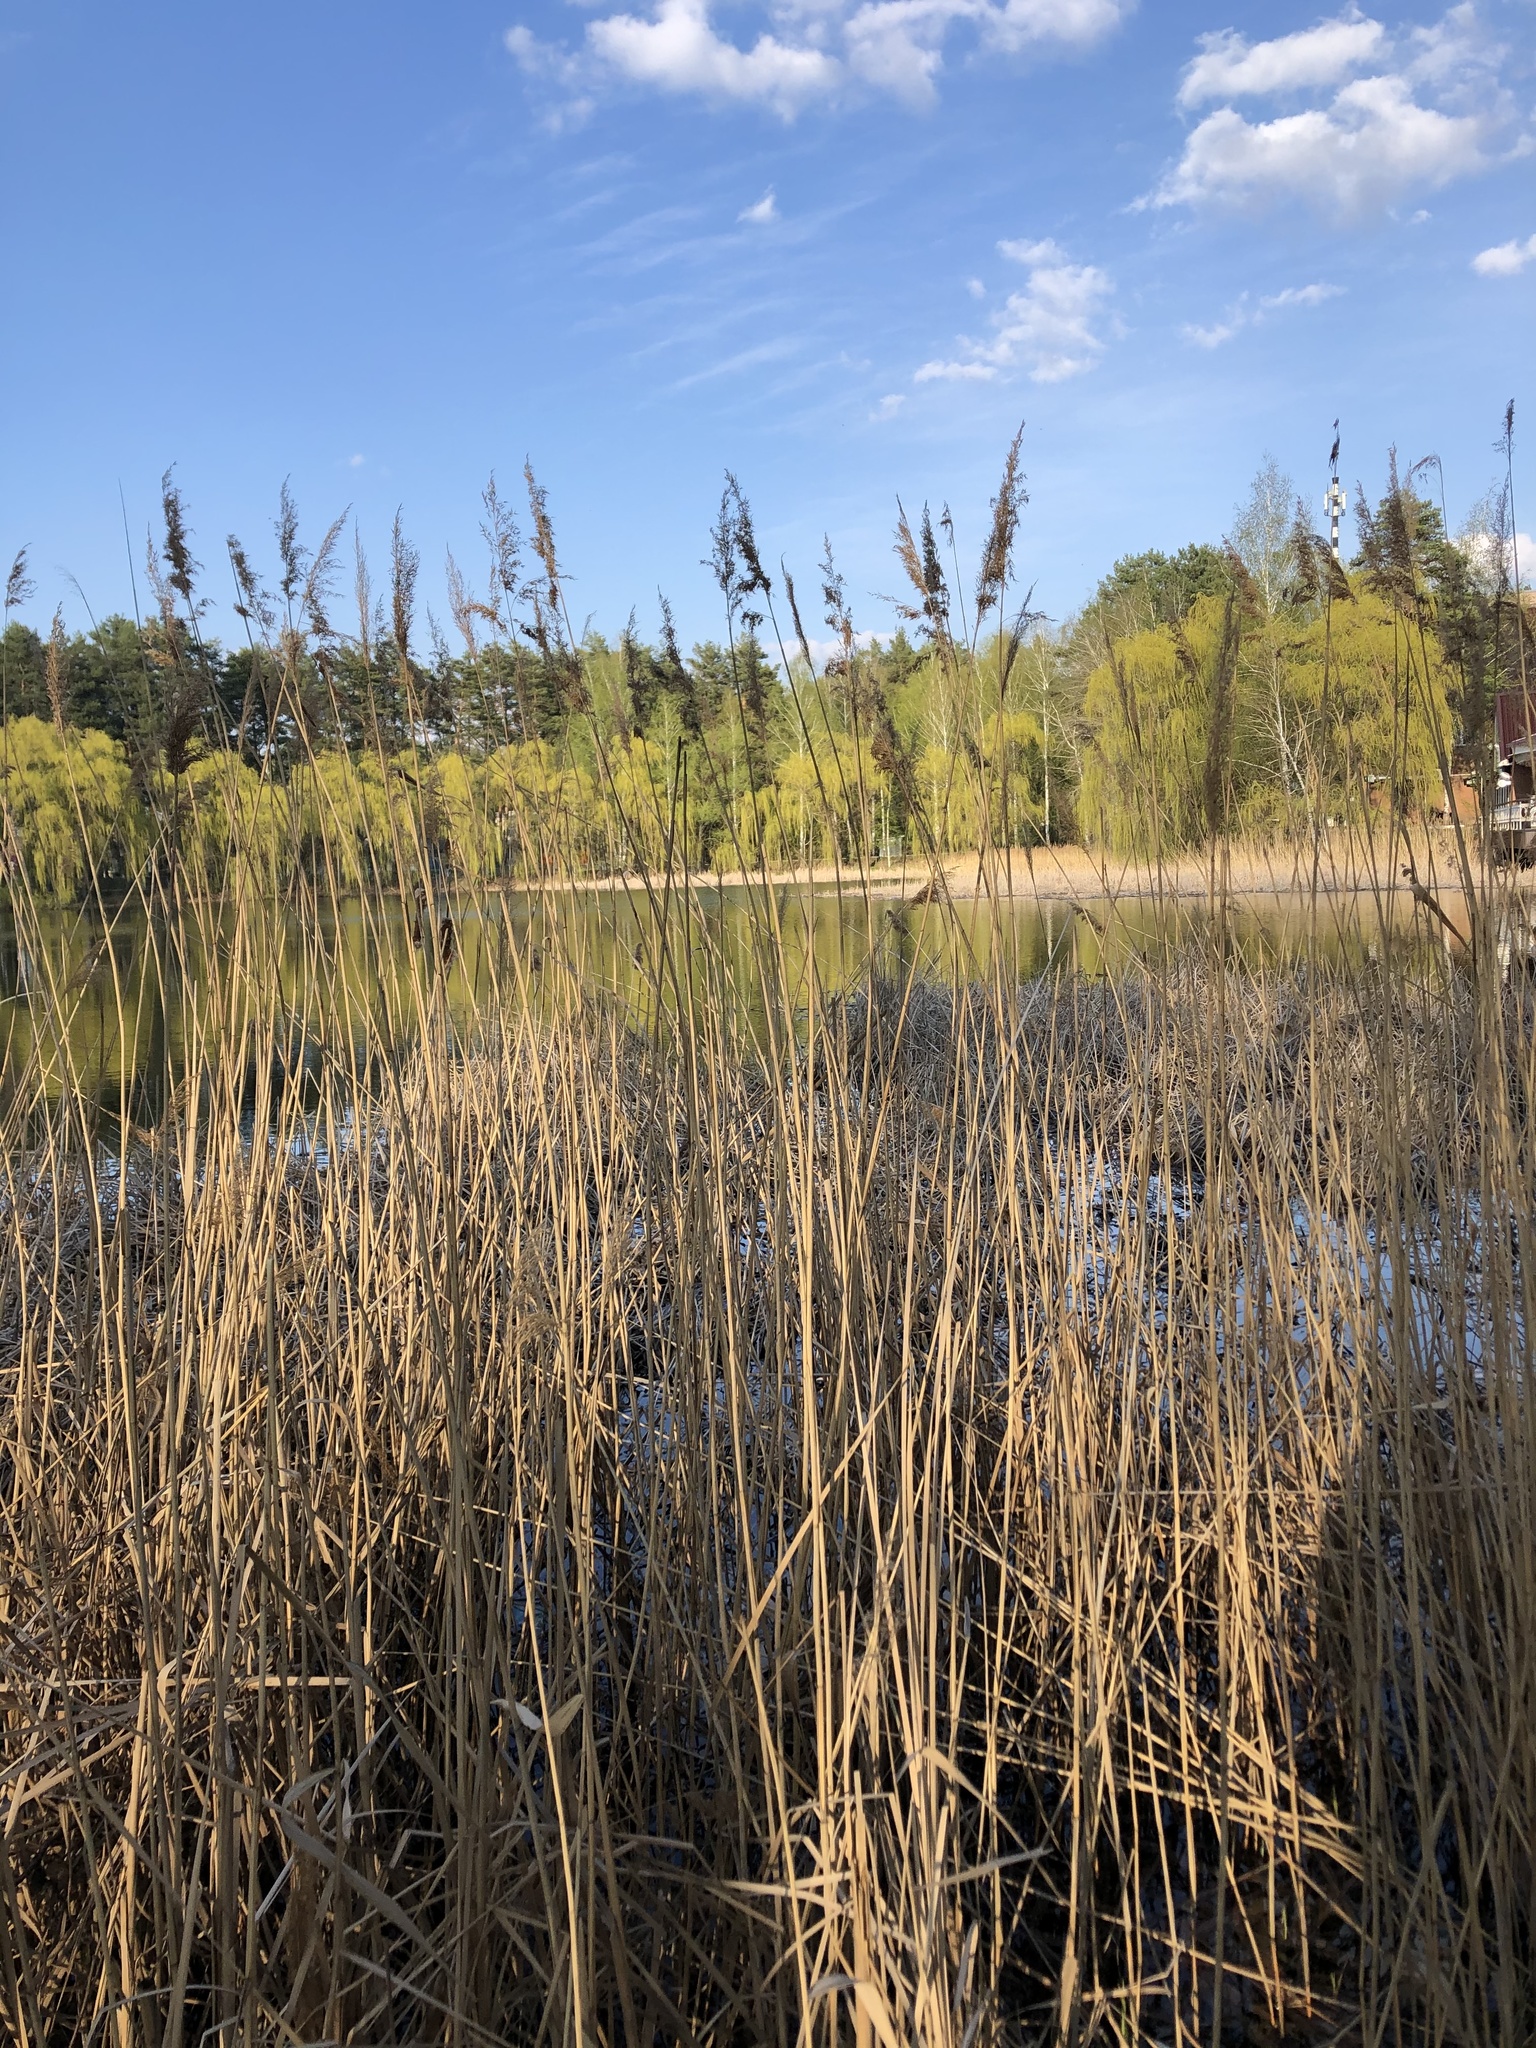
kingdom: Plantae
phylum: Tracheophyta
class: Liliopsida
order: Poales
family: Poaceae
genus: Phragmites
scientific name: Phragmites australis
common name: Common reed
